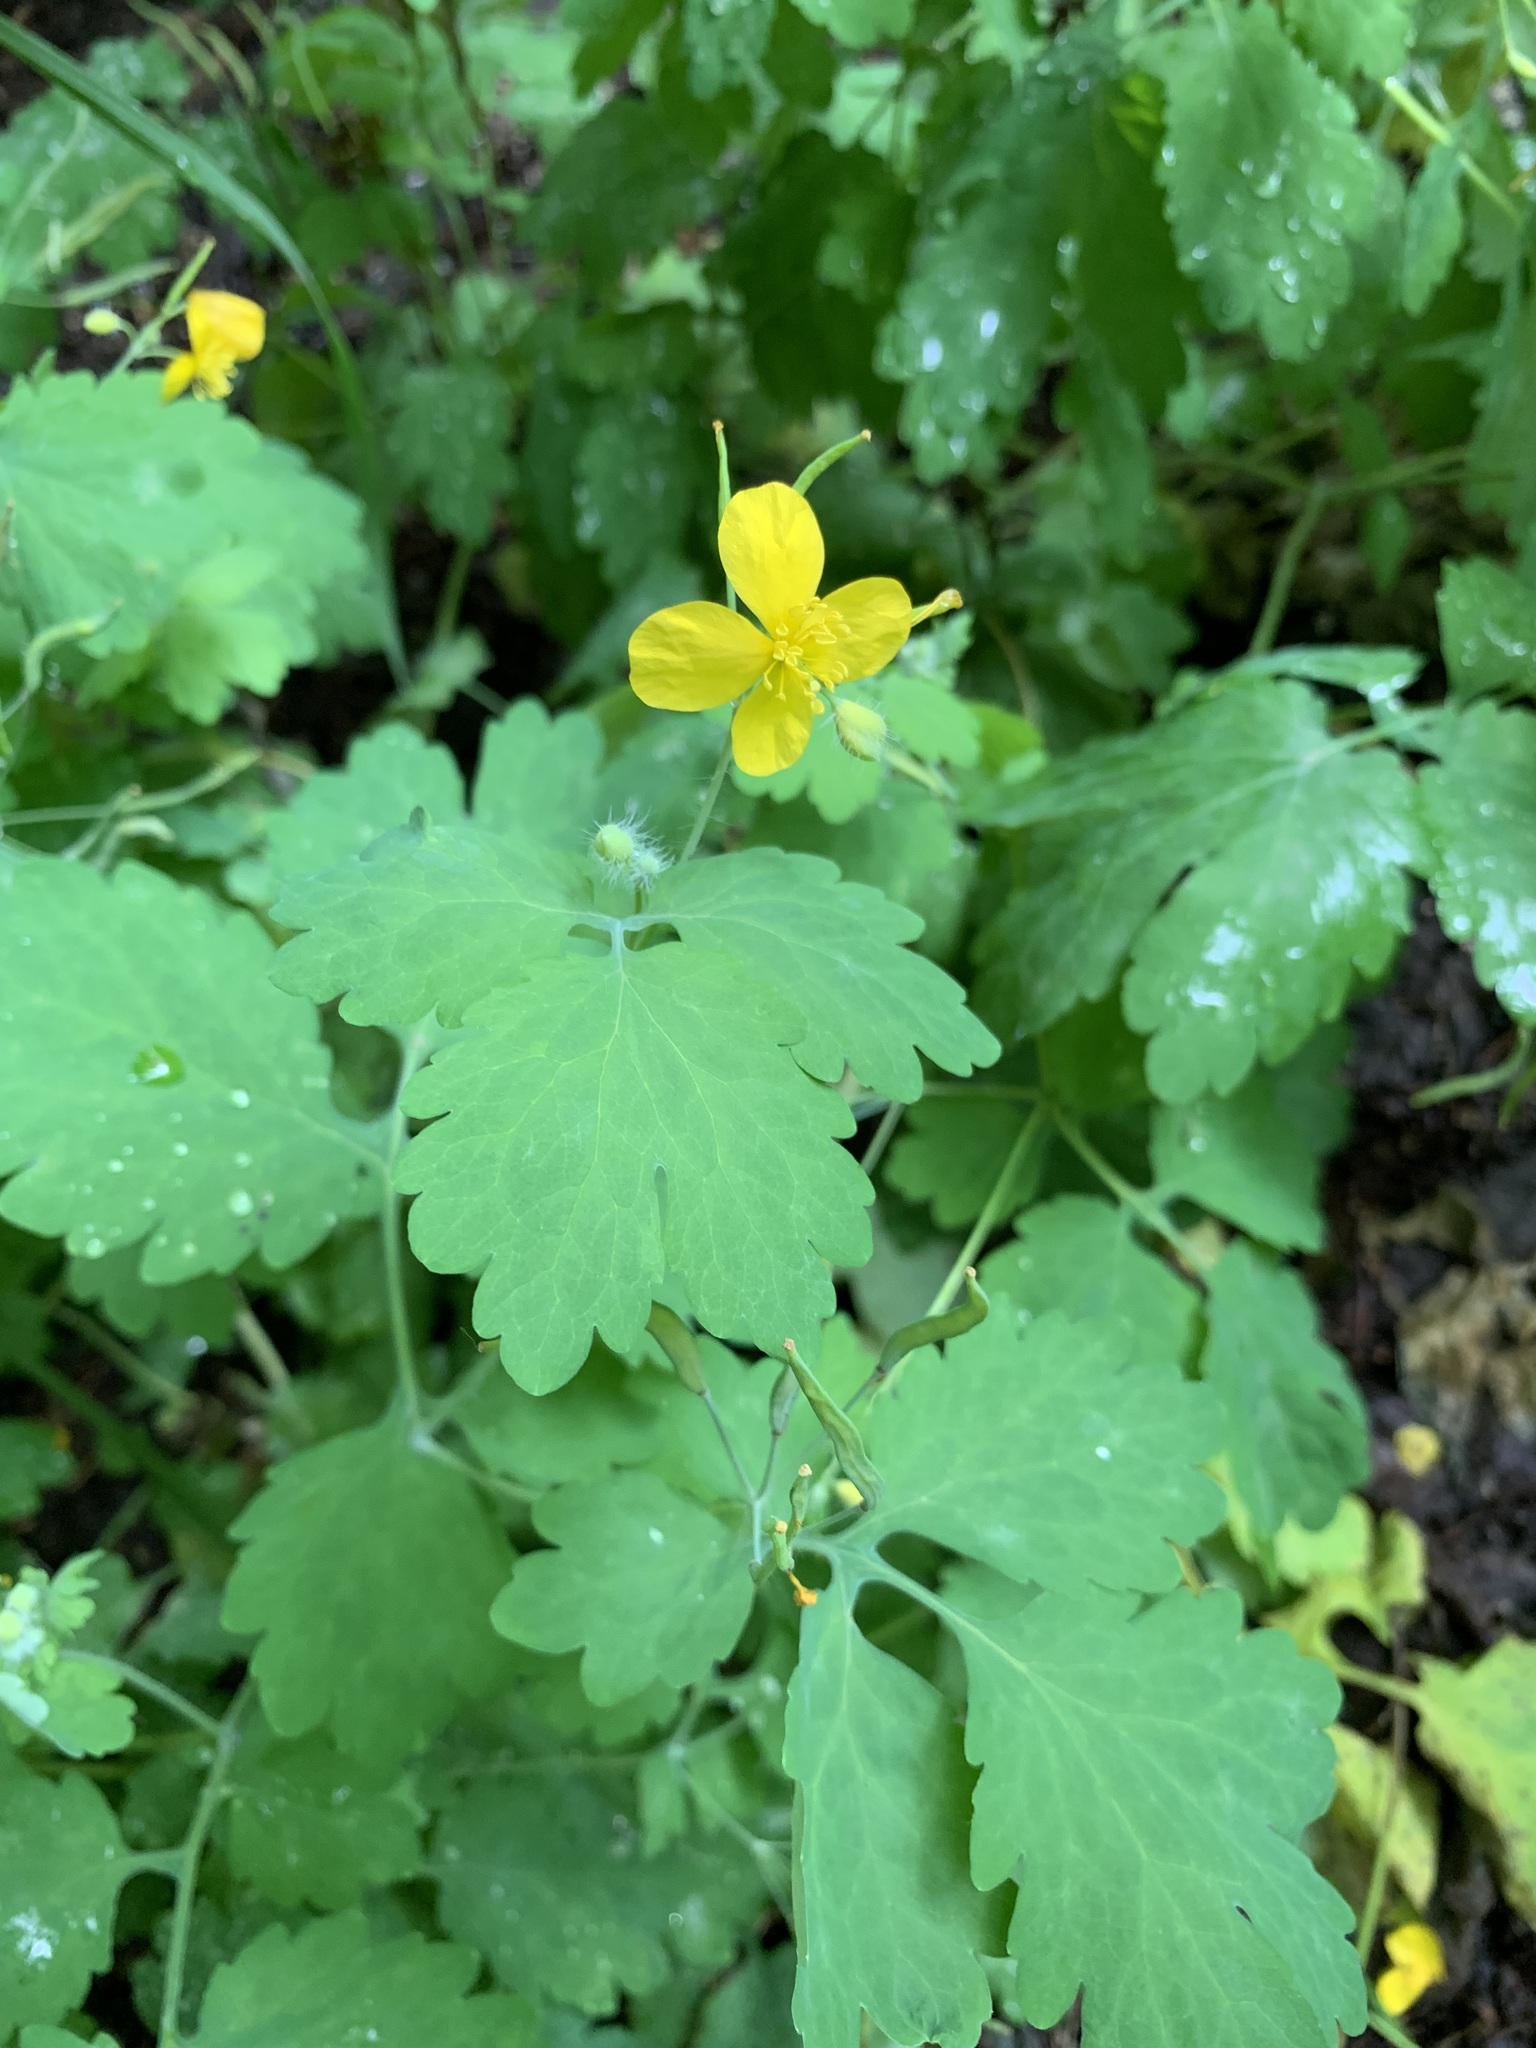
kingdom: Plantae
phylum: Tracheophyta
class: Magnoliopsida
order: Ranunculales
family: Papaveraceae
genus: Chelidonium
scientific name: Chelidonium majus
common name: Greater celandine
